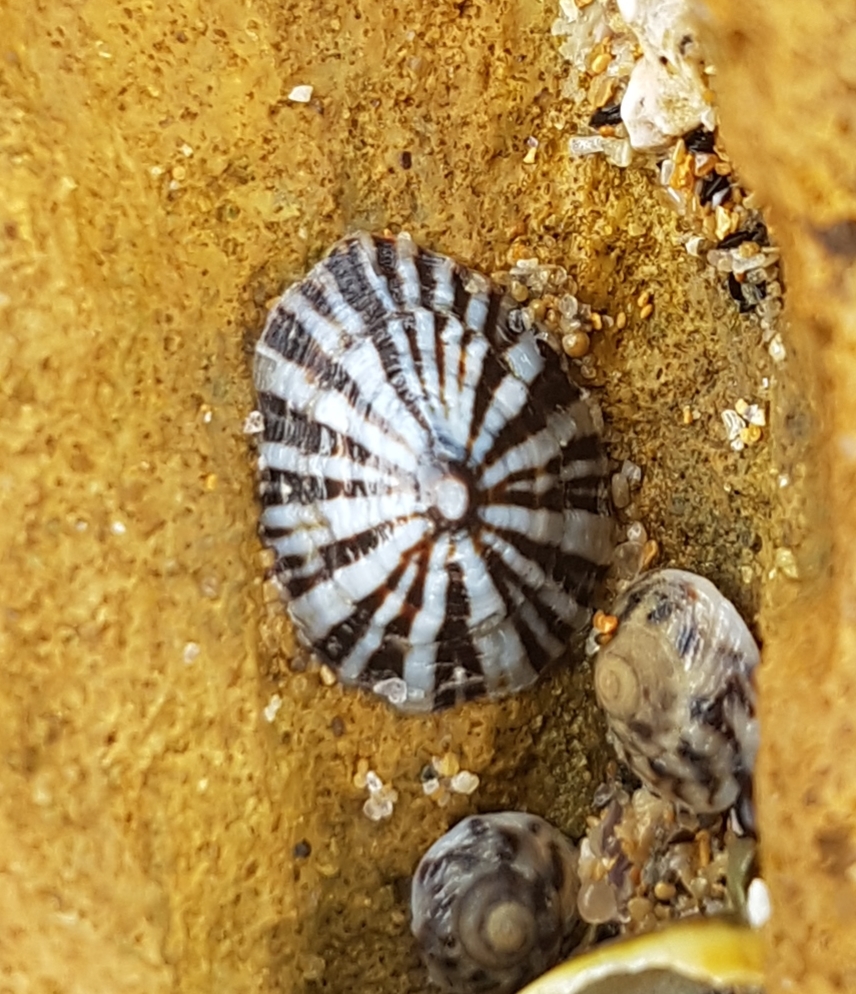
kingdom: Animalia
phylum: Mollusca
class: Gastropoda
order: Siphonariida
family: Siphonariidae
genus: Siphonaria
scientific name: Siphonaria diemenensis
